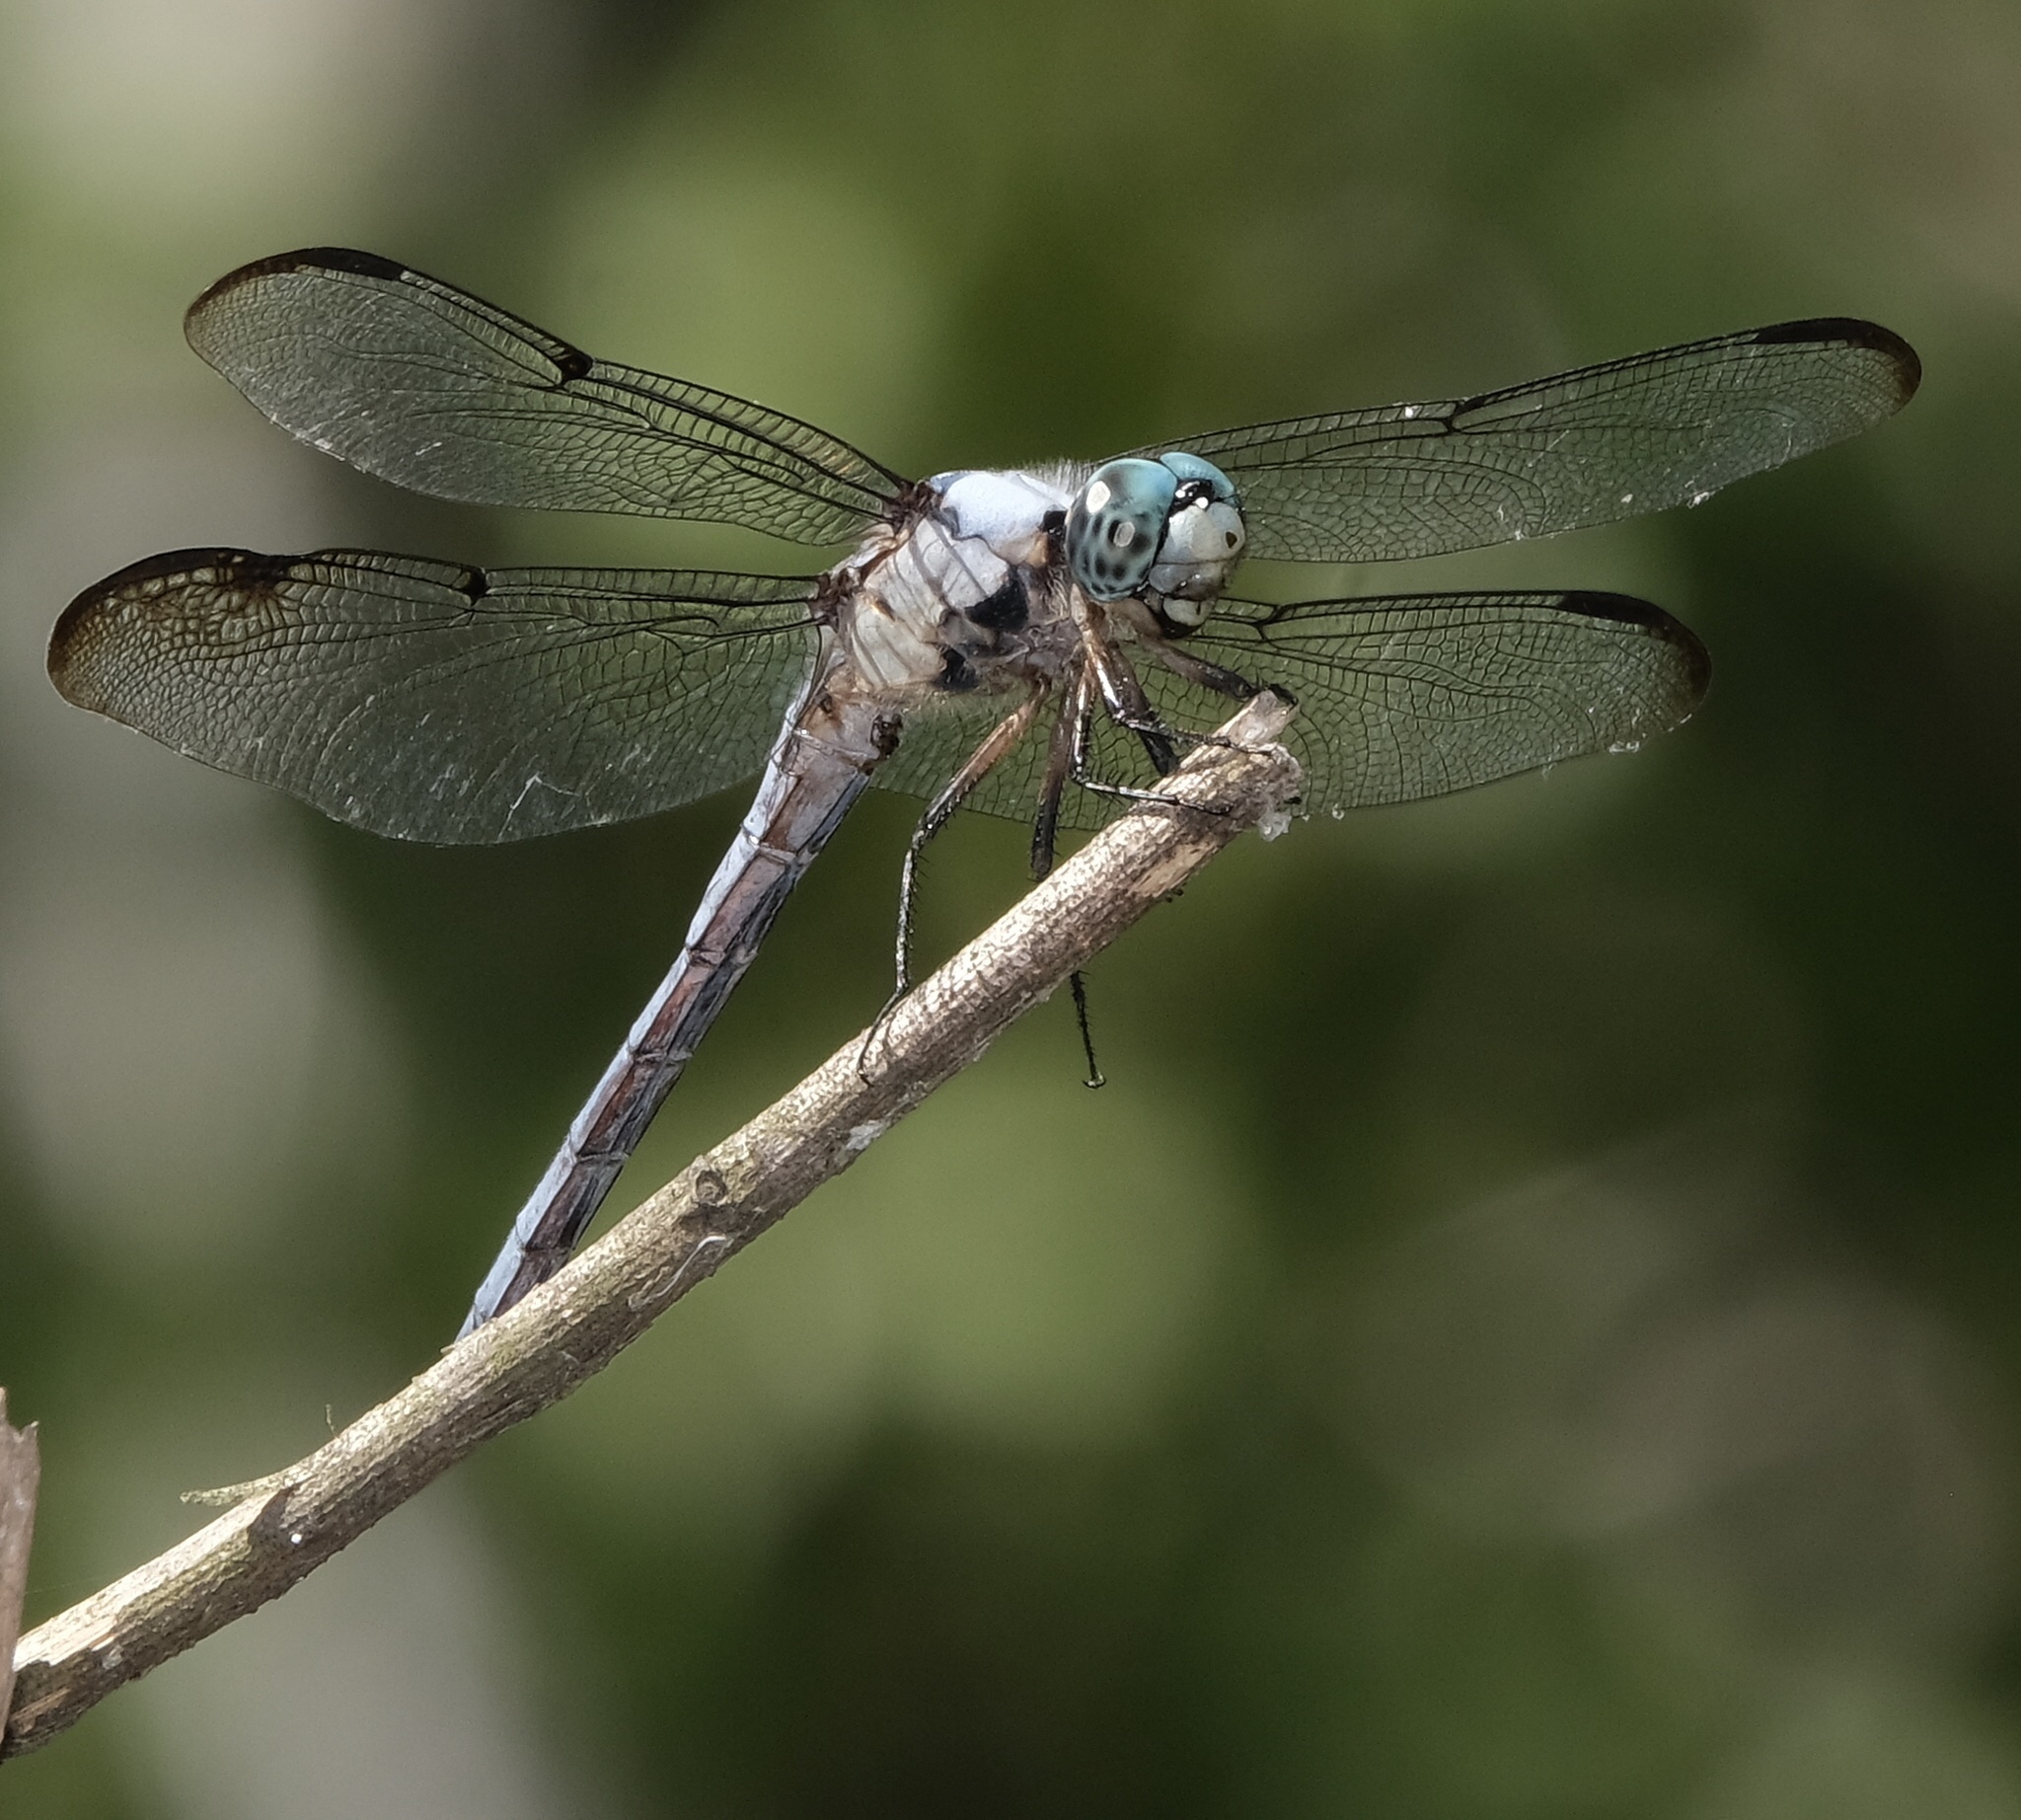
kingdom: Animalia
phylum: Arthropoda
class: Insecta
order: Odonata
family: Libellulidae
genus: Libellula
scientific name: Libellula vibrans
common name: Great blue skimmer
